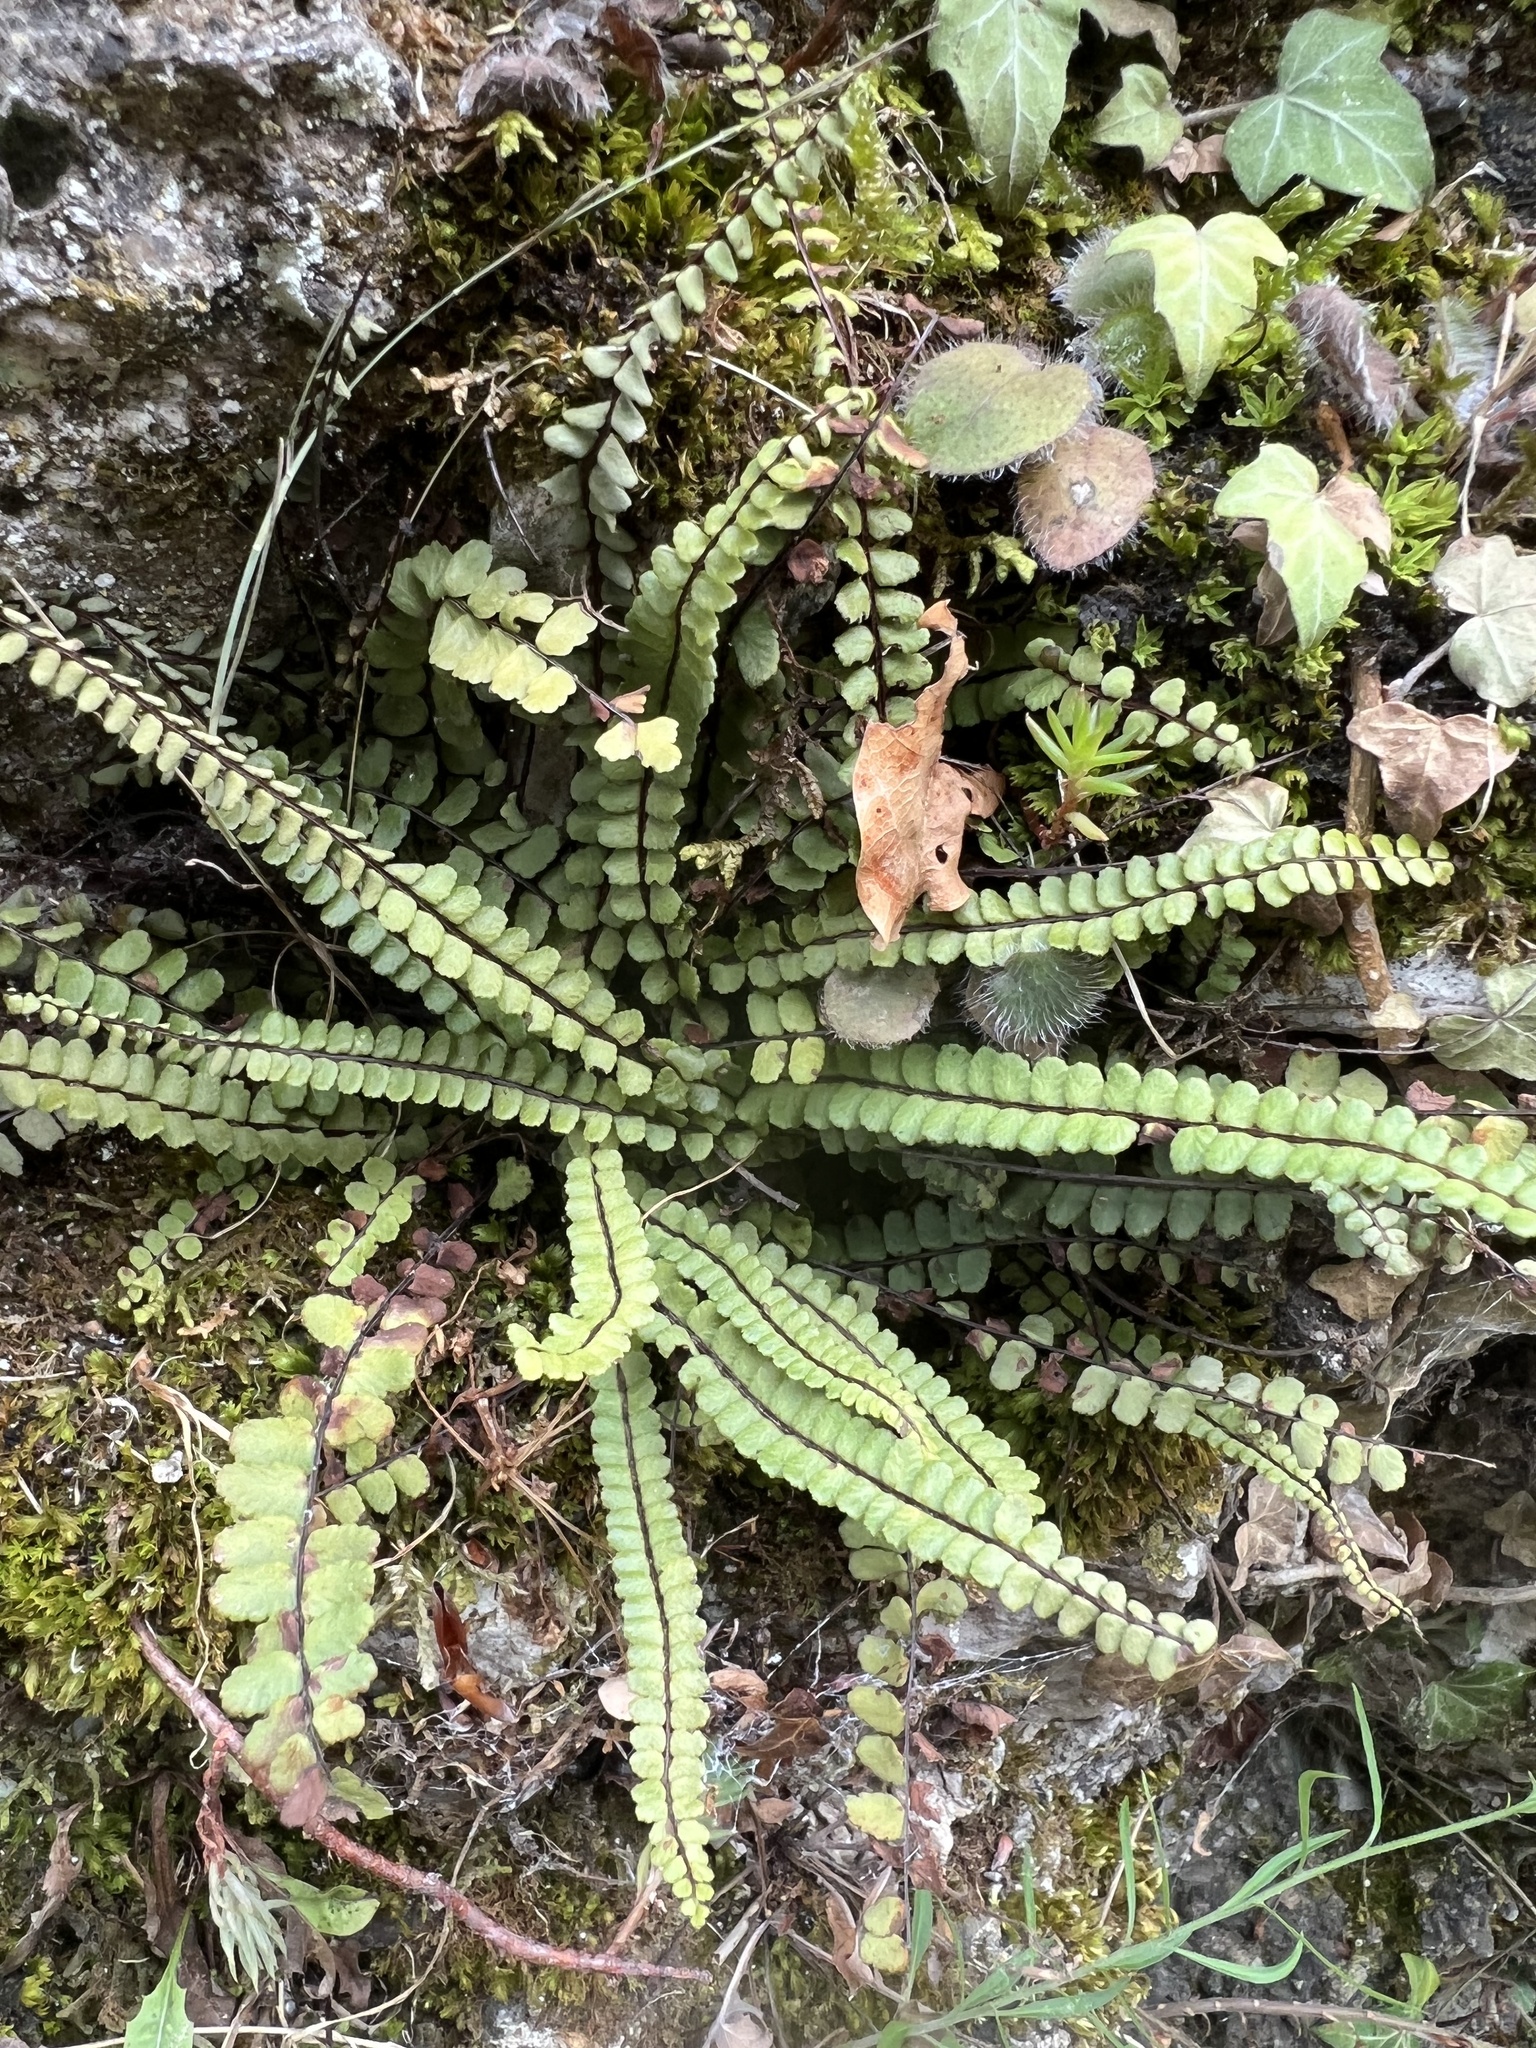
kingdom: Plantae
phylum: Tracheophyta
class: Polypodiopsida
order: Polypodiales
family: Aspleniaceae
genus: Asplenium
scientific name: Asplenium trichomanes
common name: Maidenhair spleenwort
